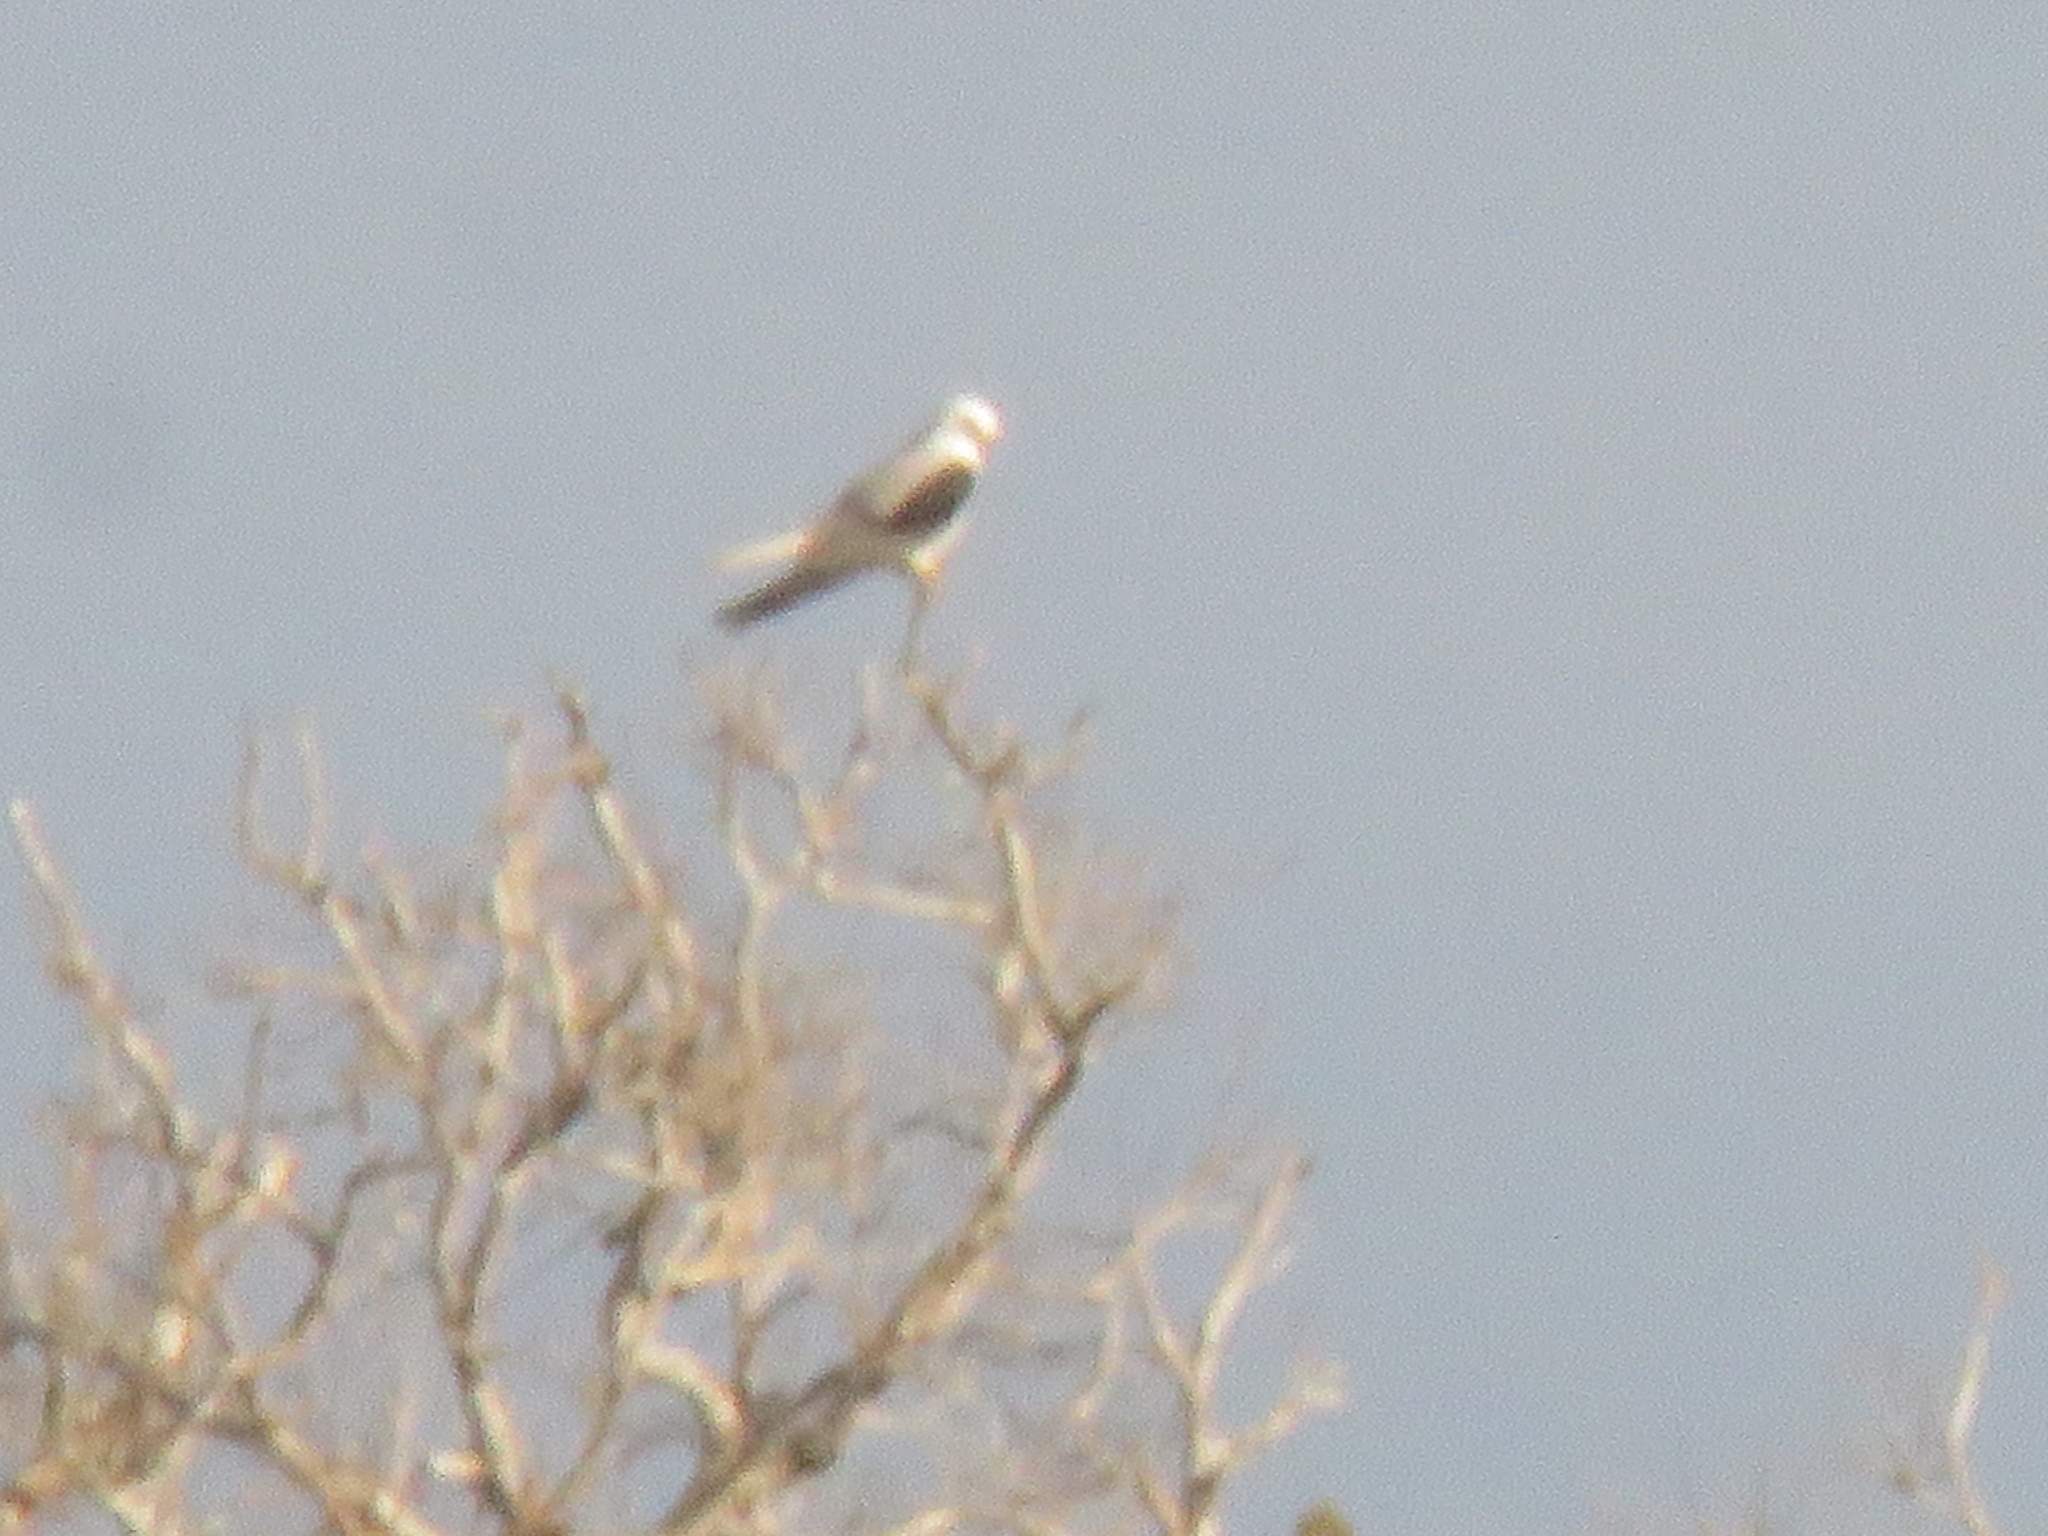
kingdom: Animalia
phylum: Chordata
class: Aves
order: Accipitriformes
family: Accipitridae
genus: Elanus
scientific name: Elanus leucurus
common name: White-tailed kite
